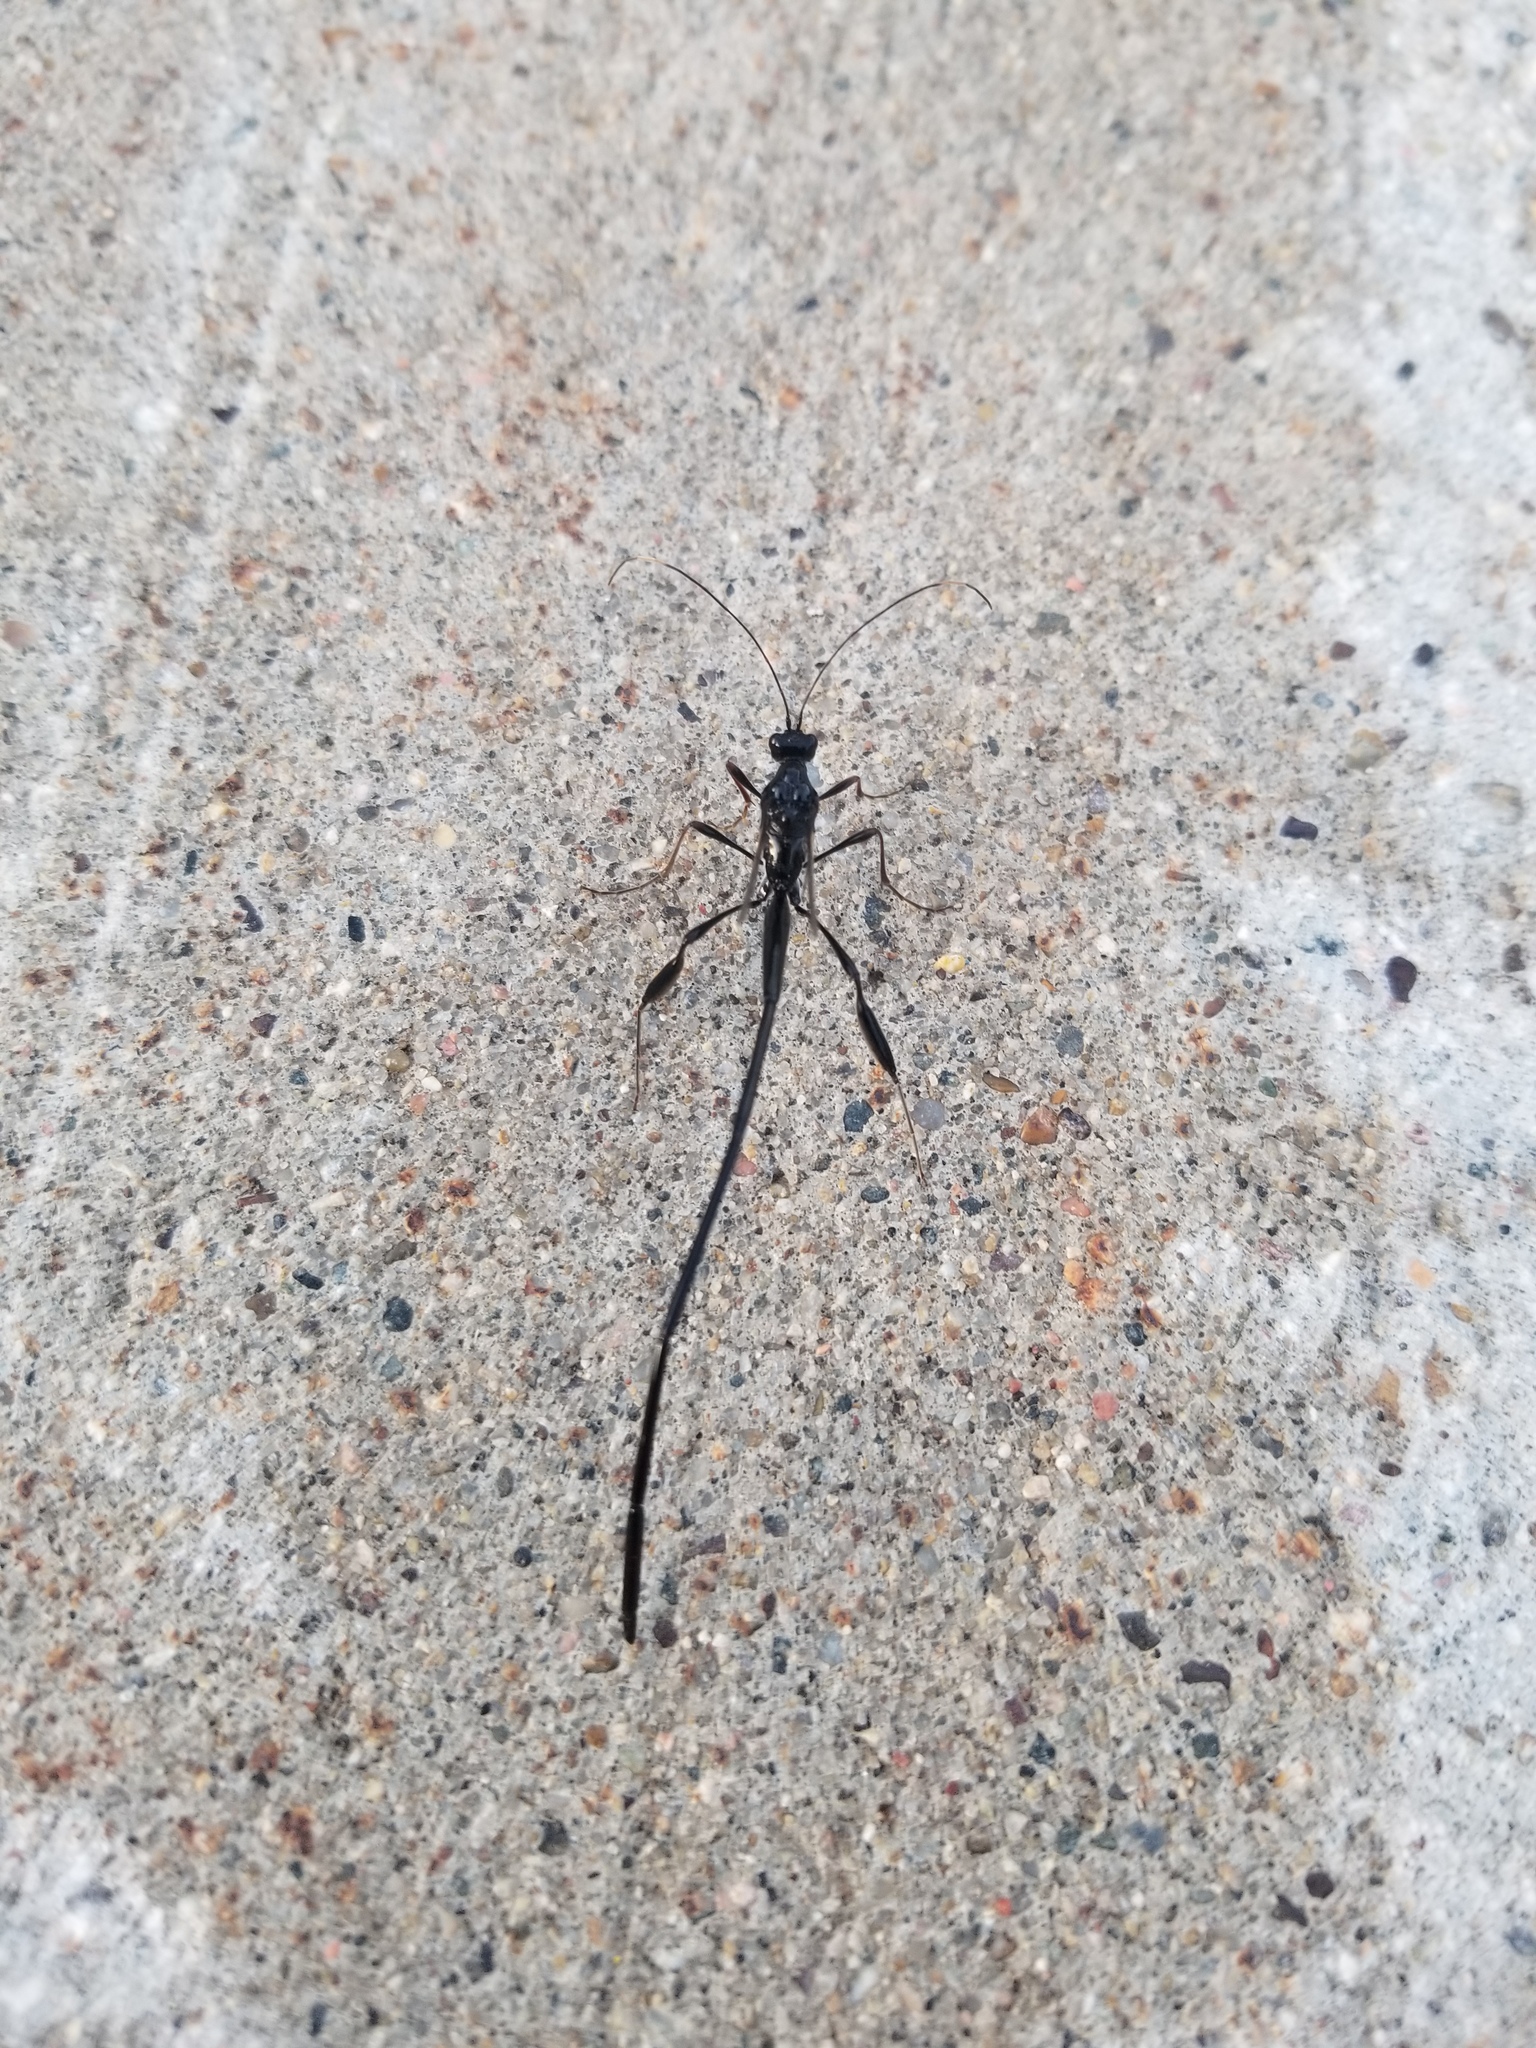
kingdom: Animalia
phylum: Arthropoda
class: Insecta
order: Hymenoptera
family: Pelecinidae
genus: Pelecinus
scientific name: Pelecinus polyturator
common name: American pelecinid wasp
